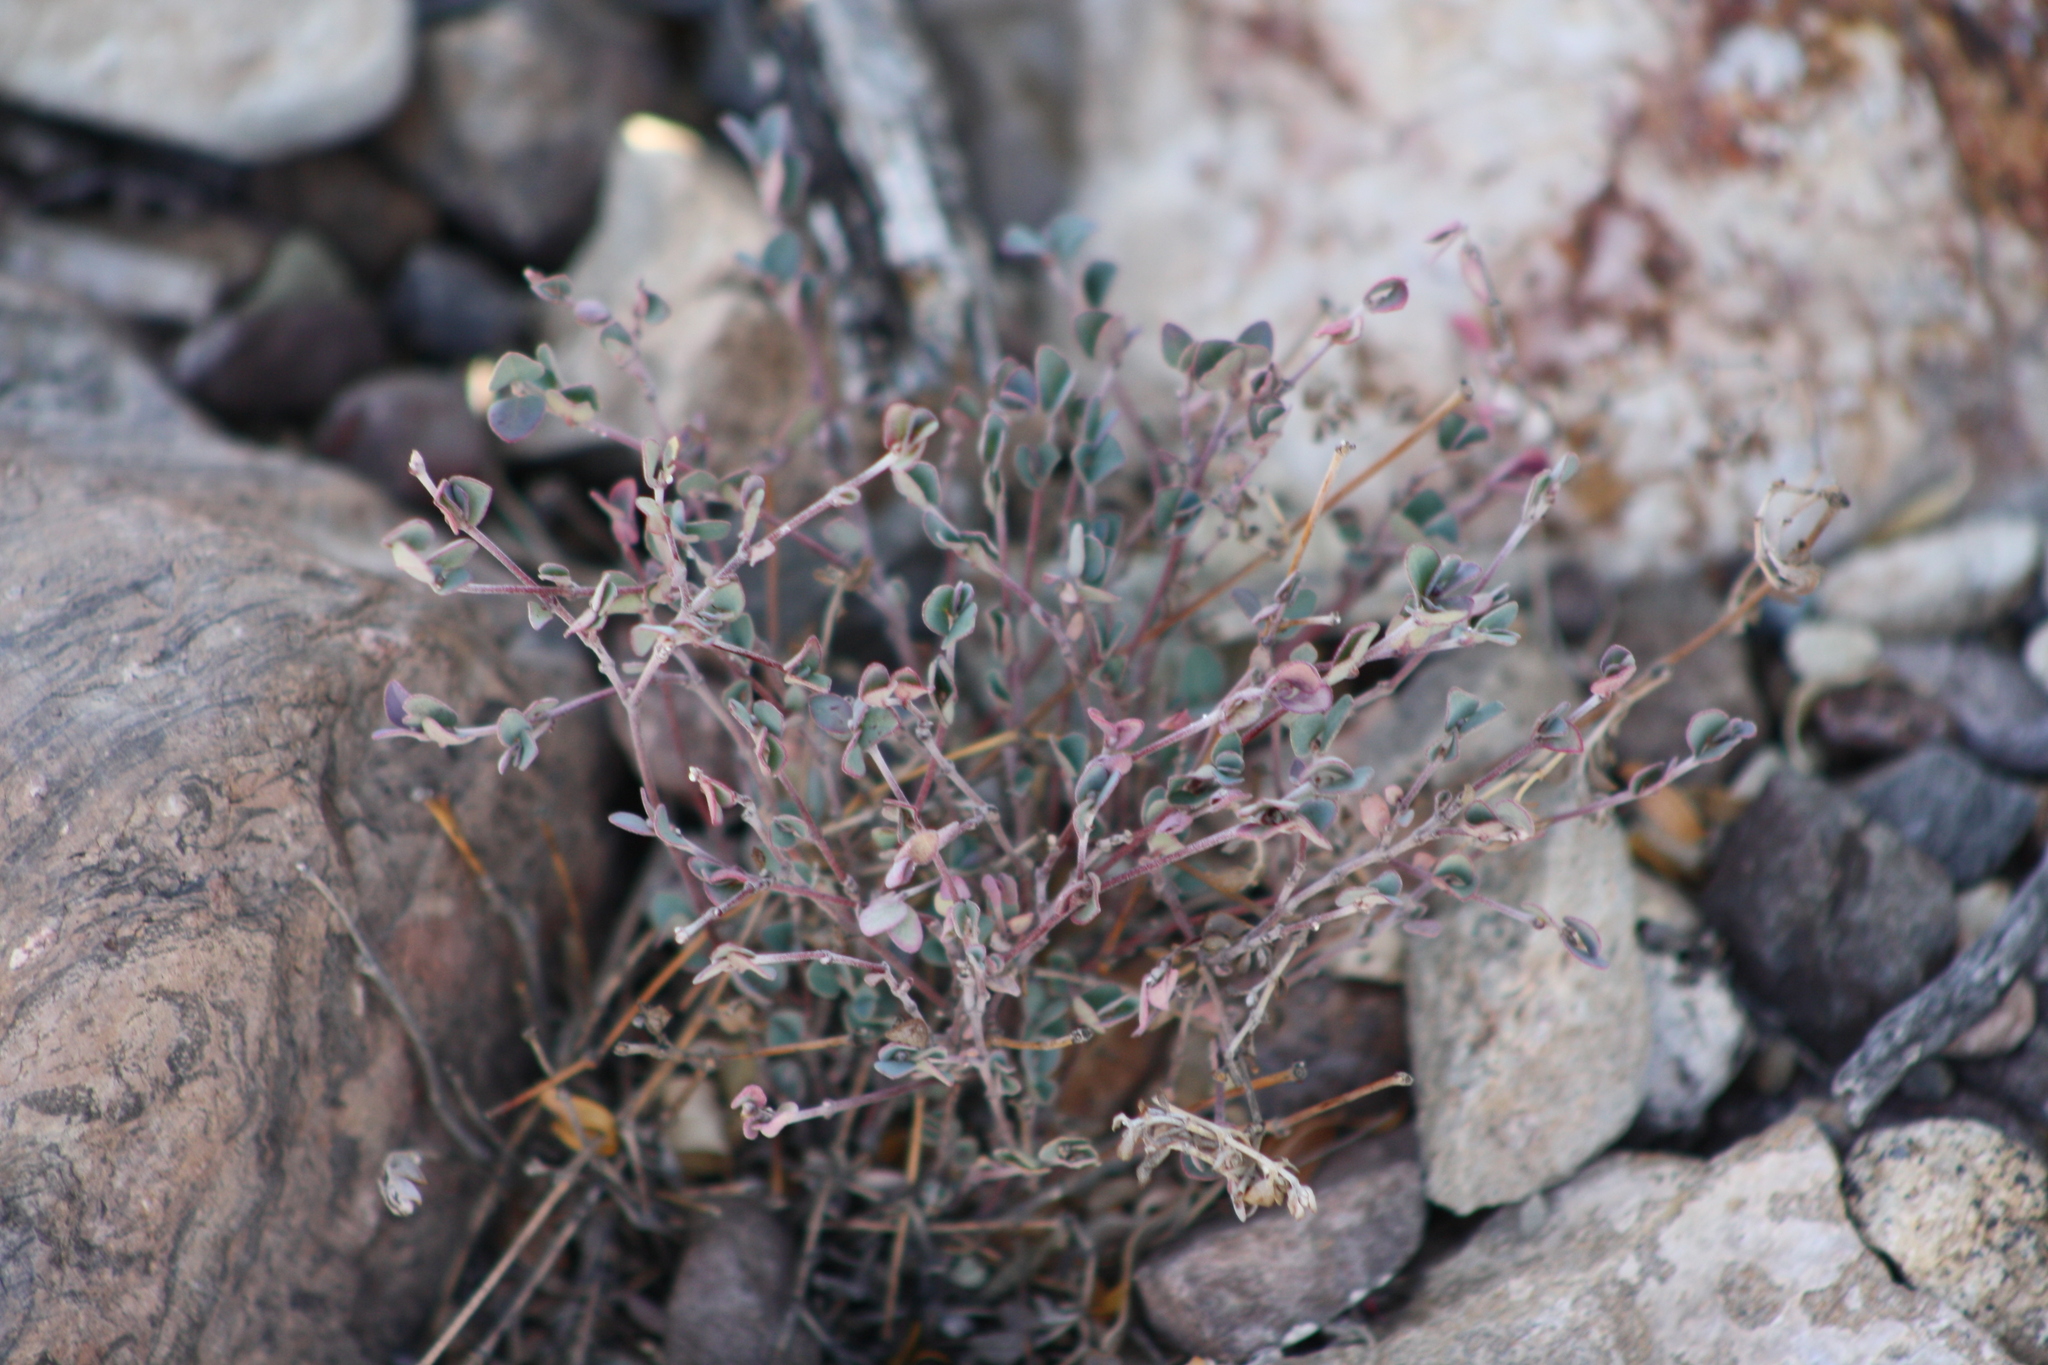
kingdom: Plantae
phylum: Tracheophyta
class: Magnoliopsida
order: Malpighiales
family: Euphorbiaceae
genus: Euphorbia
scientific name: Euphorbia cinerascens
